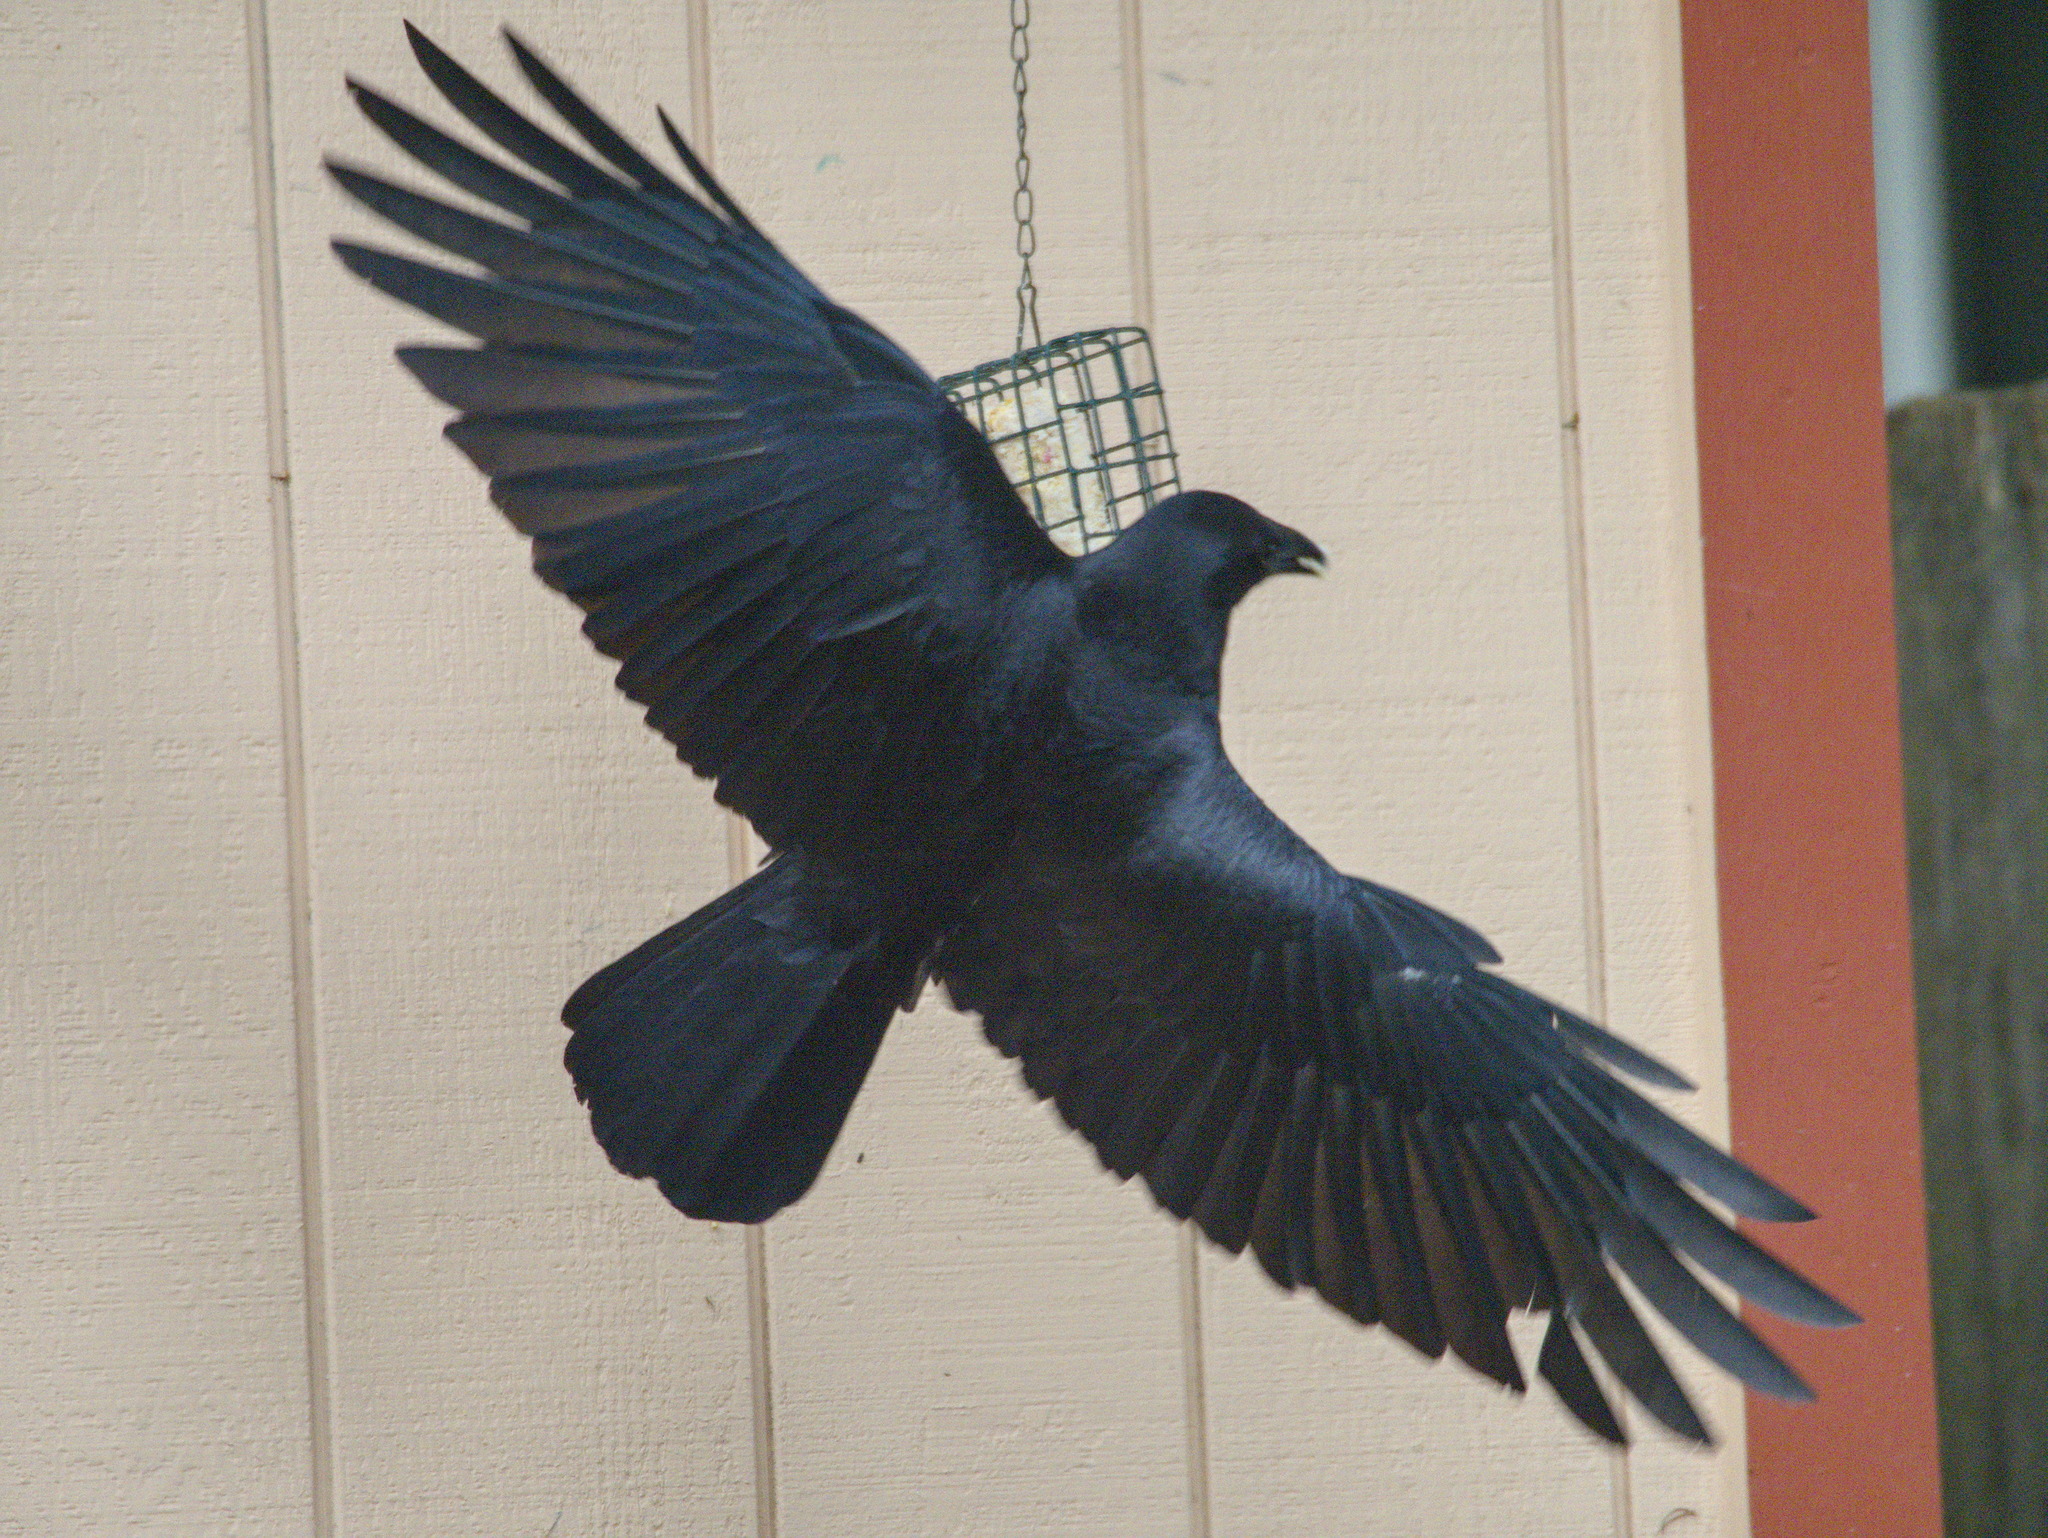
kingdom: Animalia
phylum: Chordata
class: Aves
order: Passeriformes
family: Corvidae
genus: Corvus
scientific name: Corvus brachyrhynchos
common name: American crow
